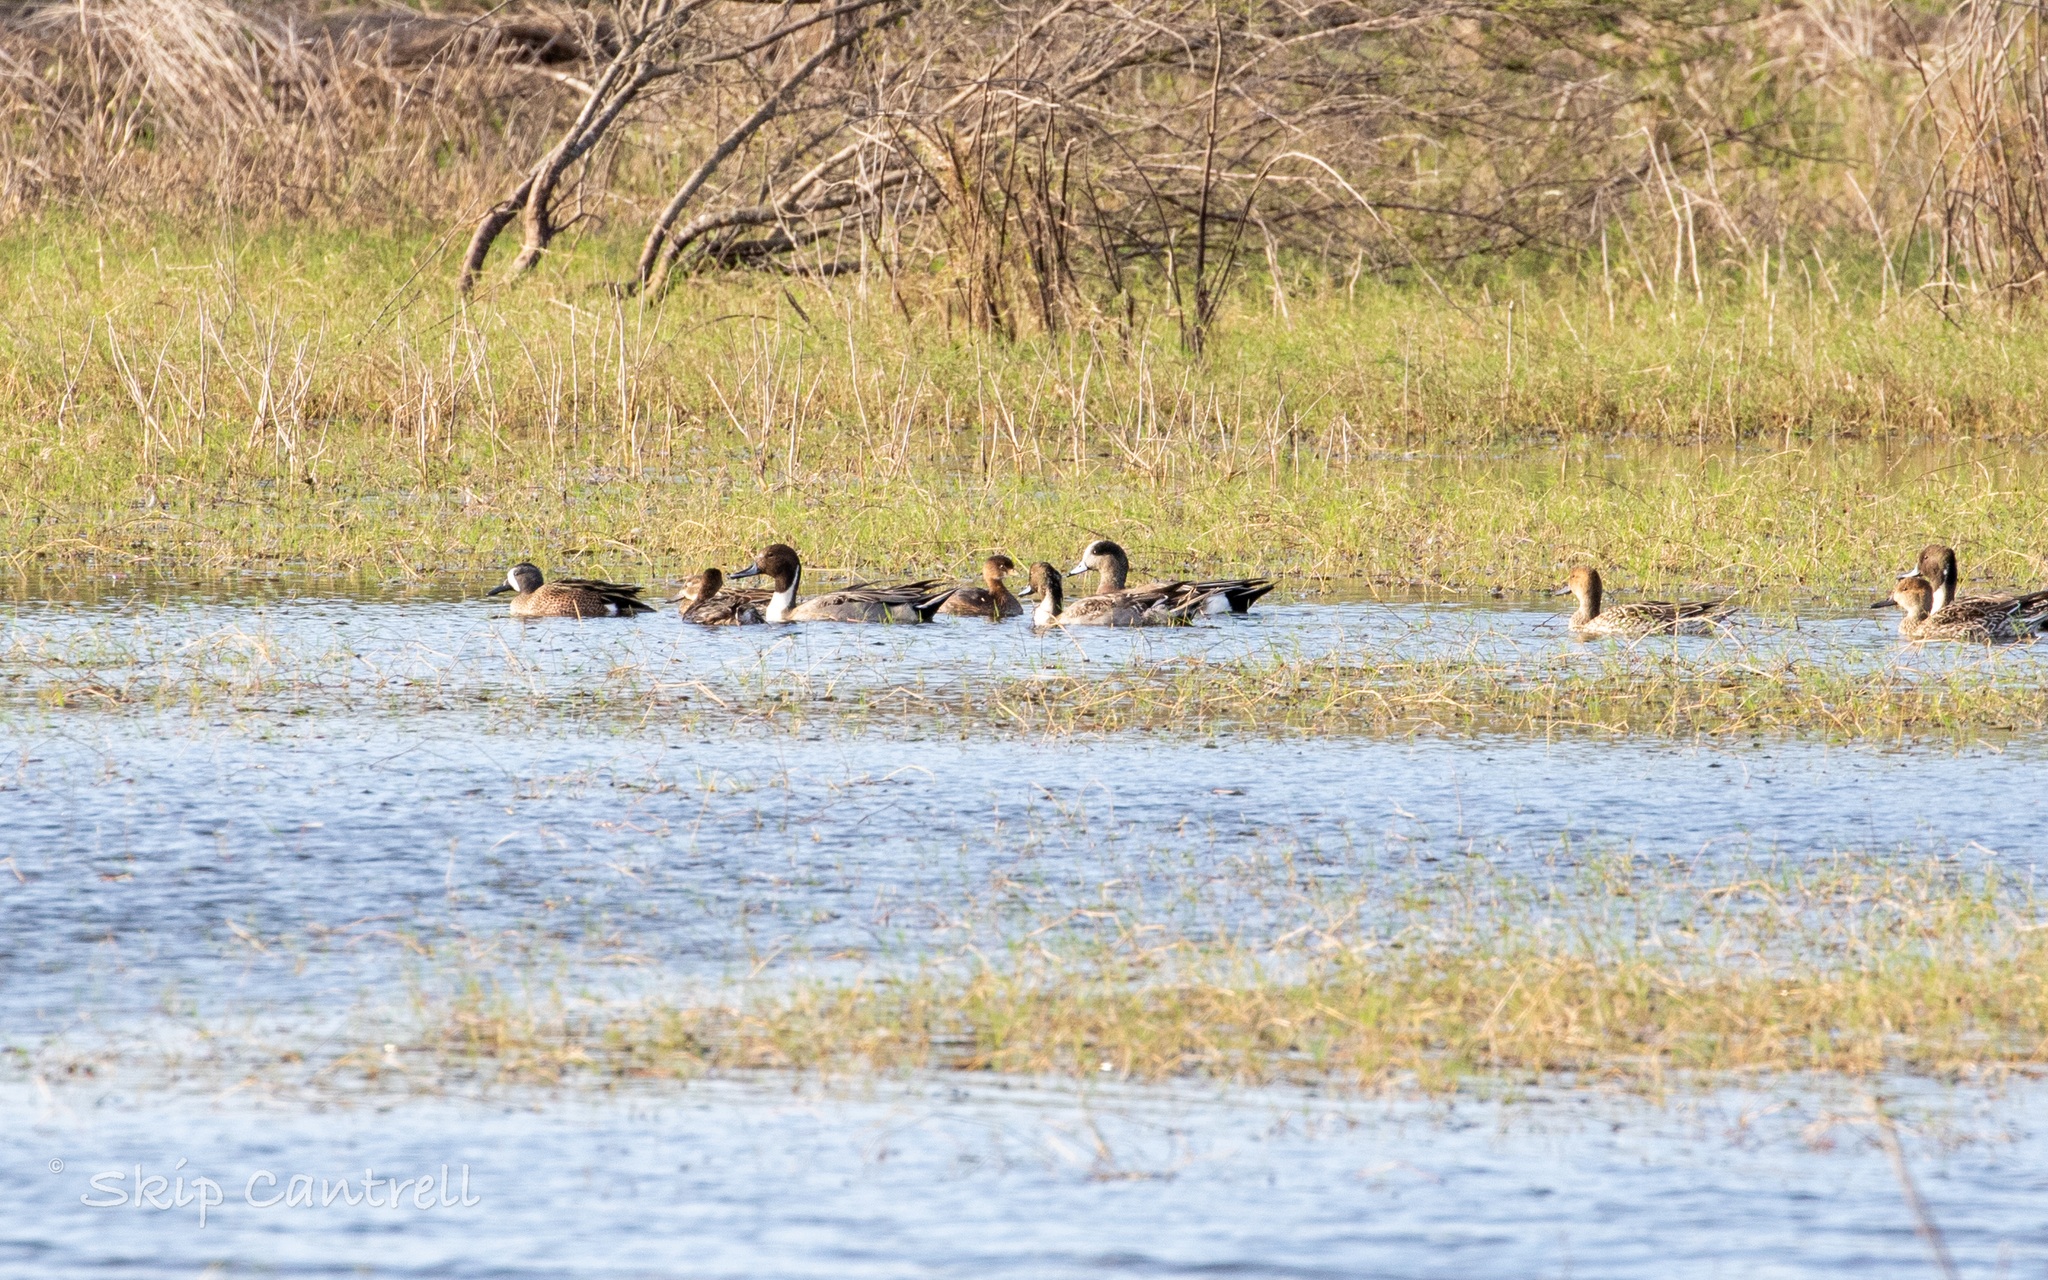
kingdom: Animalia
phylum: Chordata
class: Aves
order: Anseriformes
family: Anatidae
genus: Mareca
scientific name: Mareca americana
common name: American wigeon
